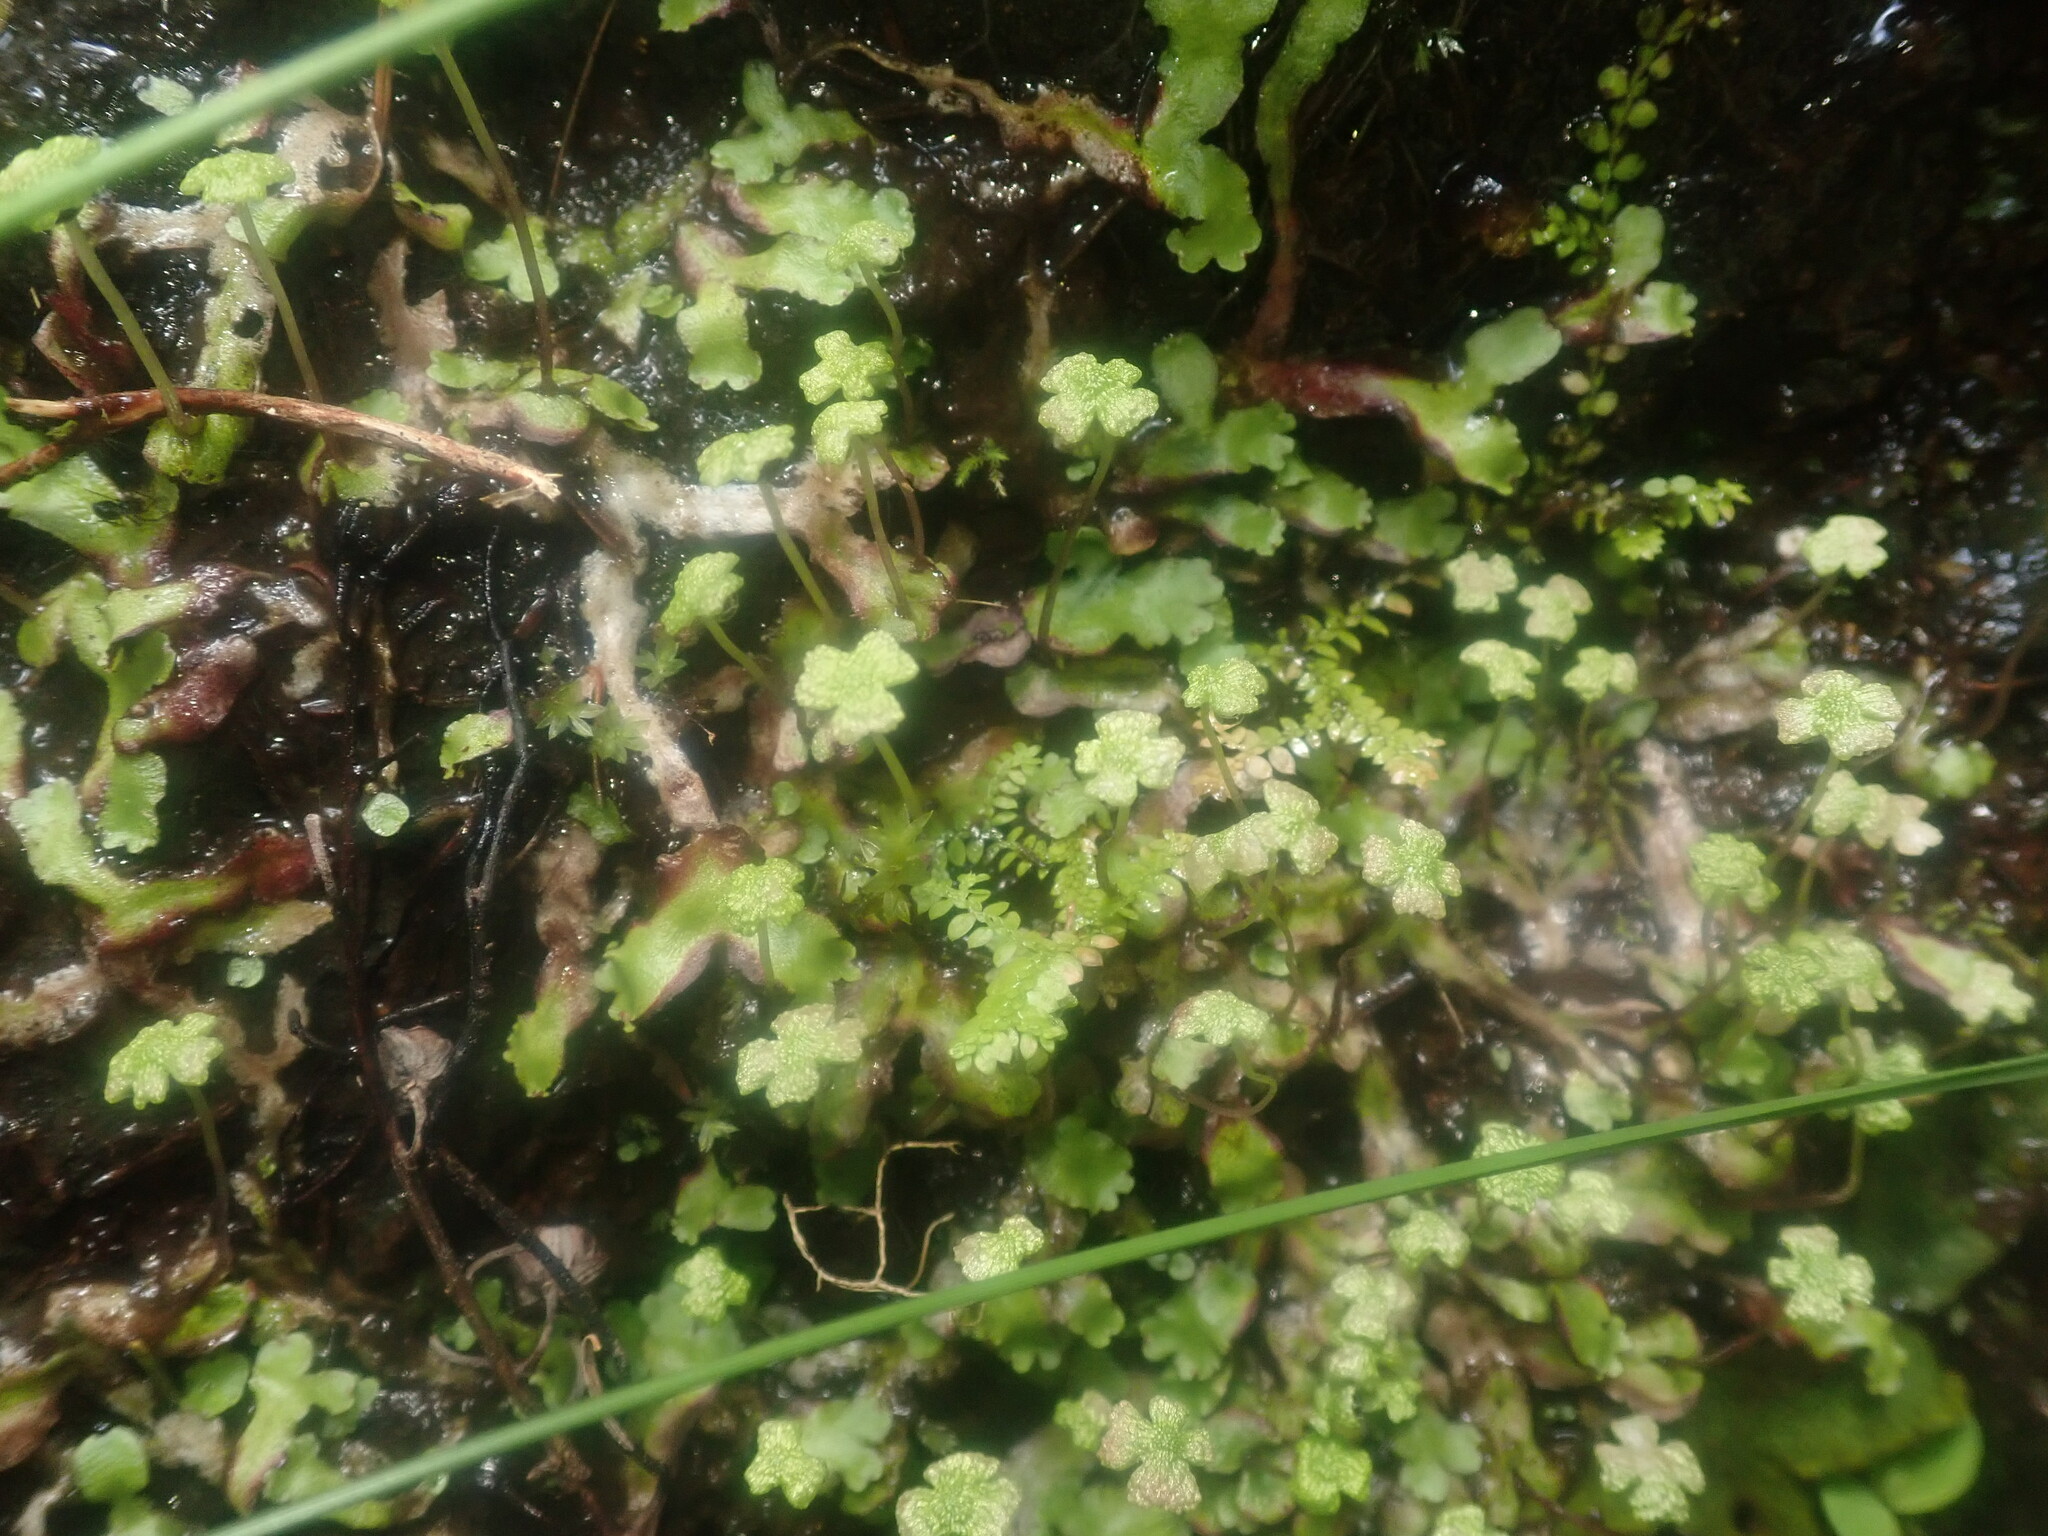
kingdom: Plantae
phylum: Marchantiophyta
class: Marchantiopsida
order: Marchantiales
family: Aytoniaceae
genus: Asterella
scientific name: Asterella africana
